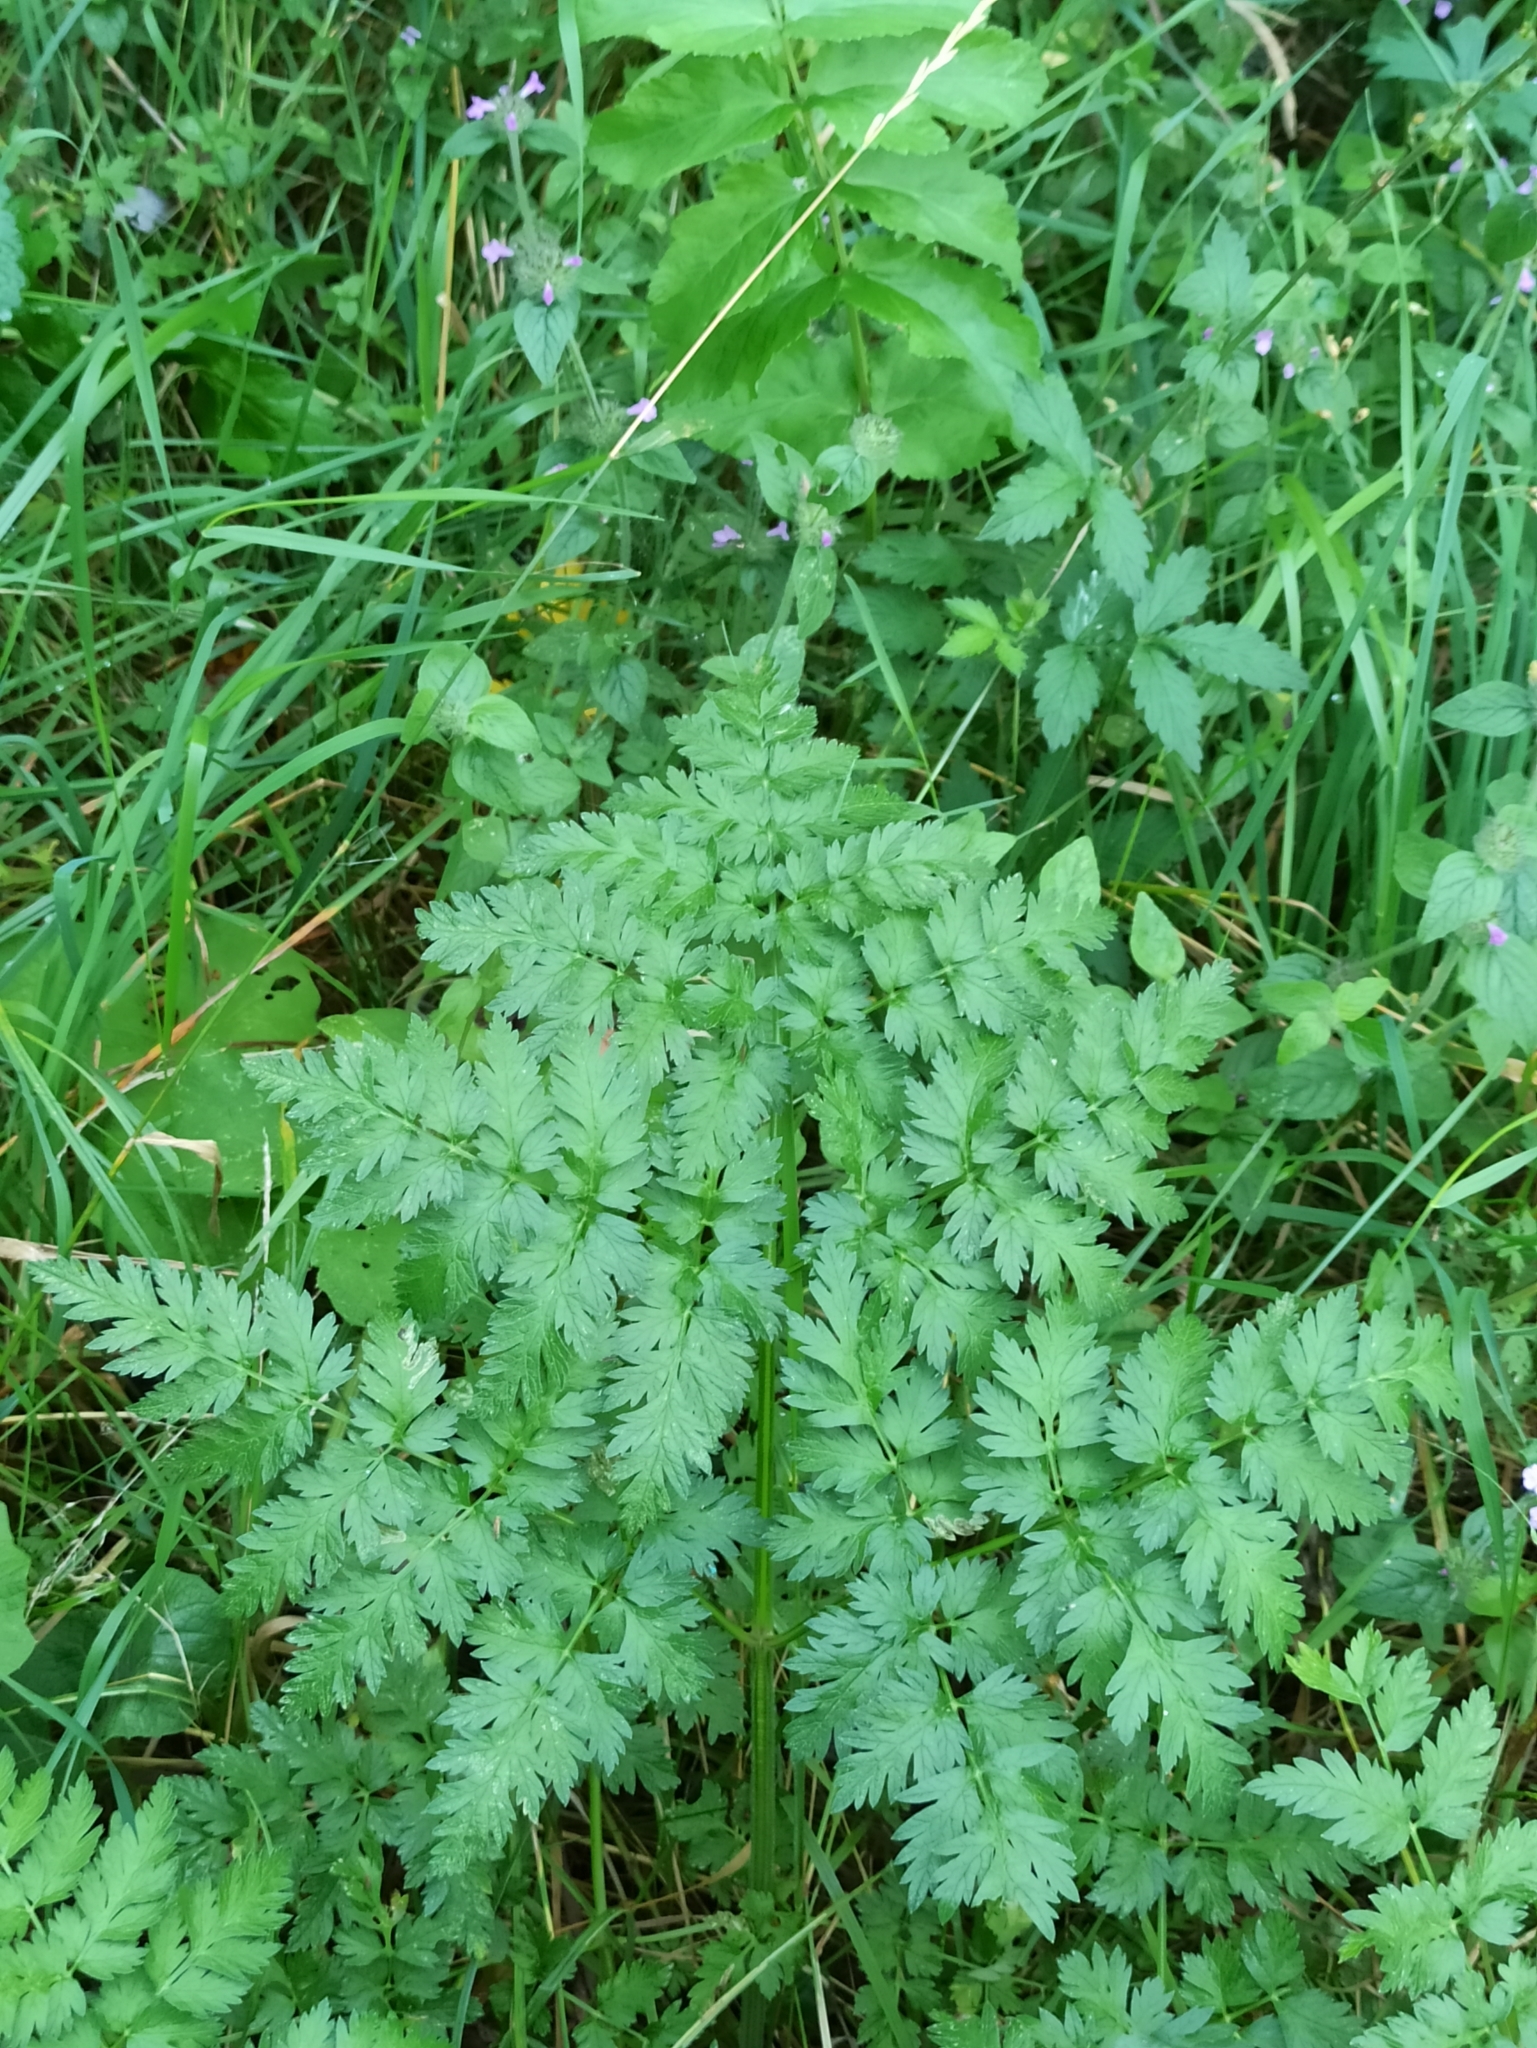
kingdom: Plantae
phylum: Tracheophyta
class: Magnoliopsida
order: Apiales
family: Apiaceae
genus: Anthriscus
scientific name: Anthriscus sylvestris
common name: Cow parsley
